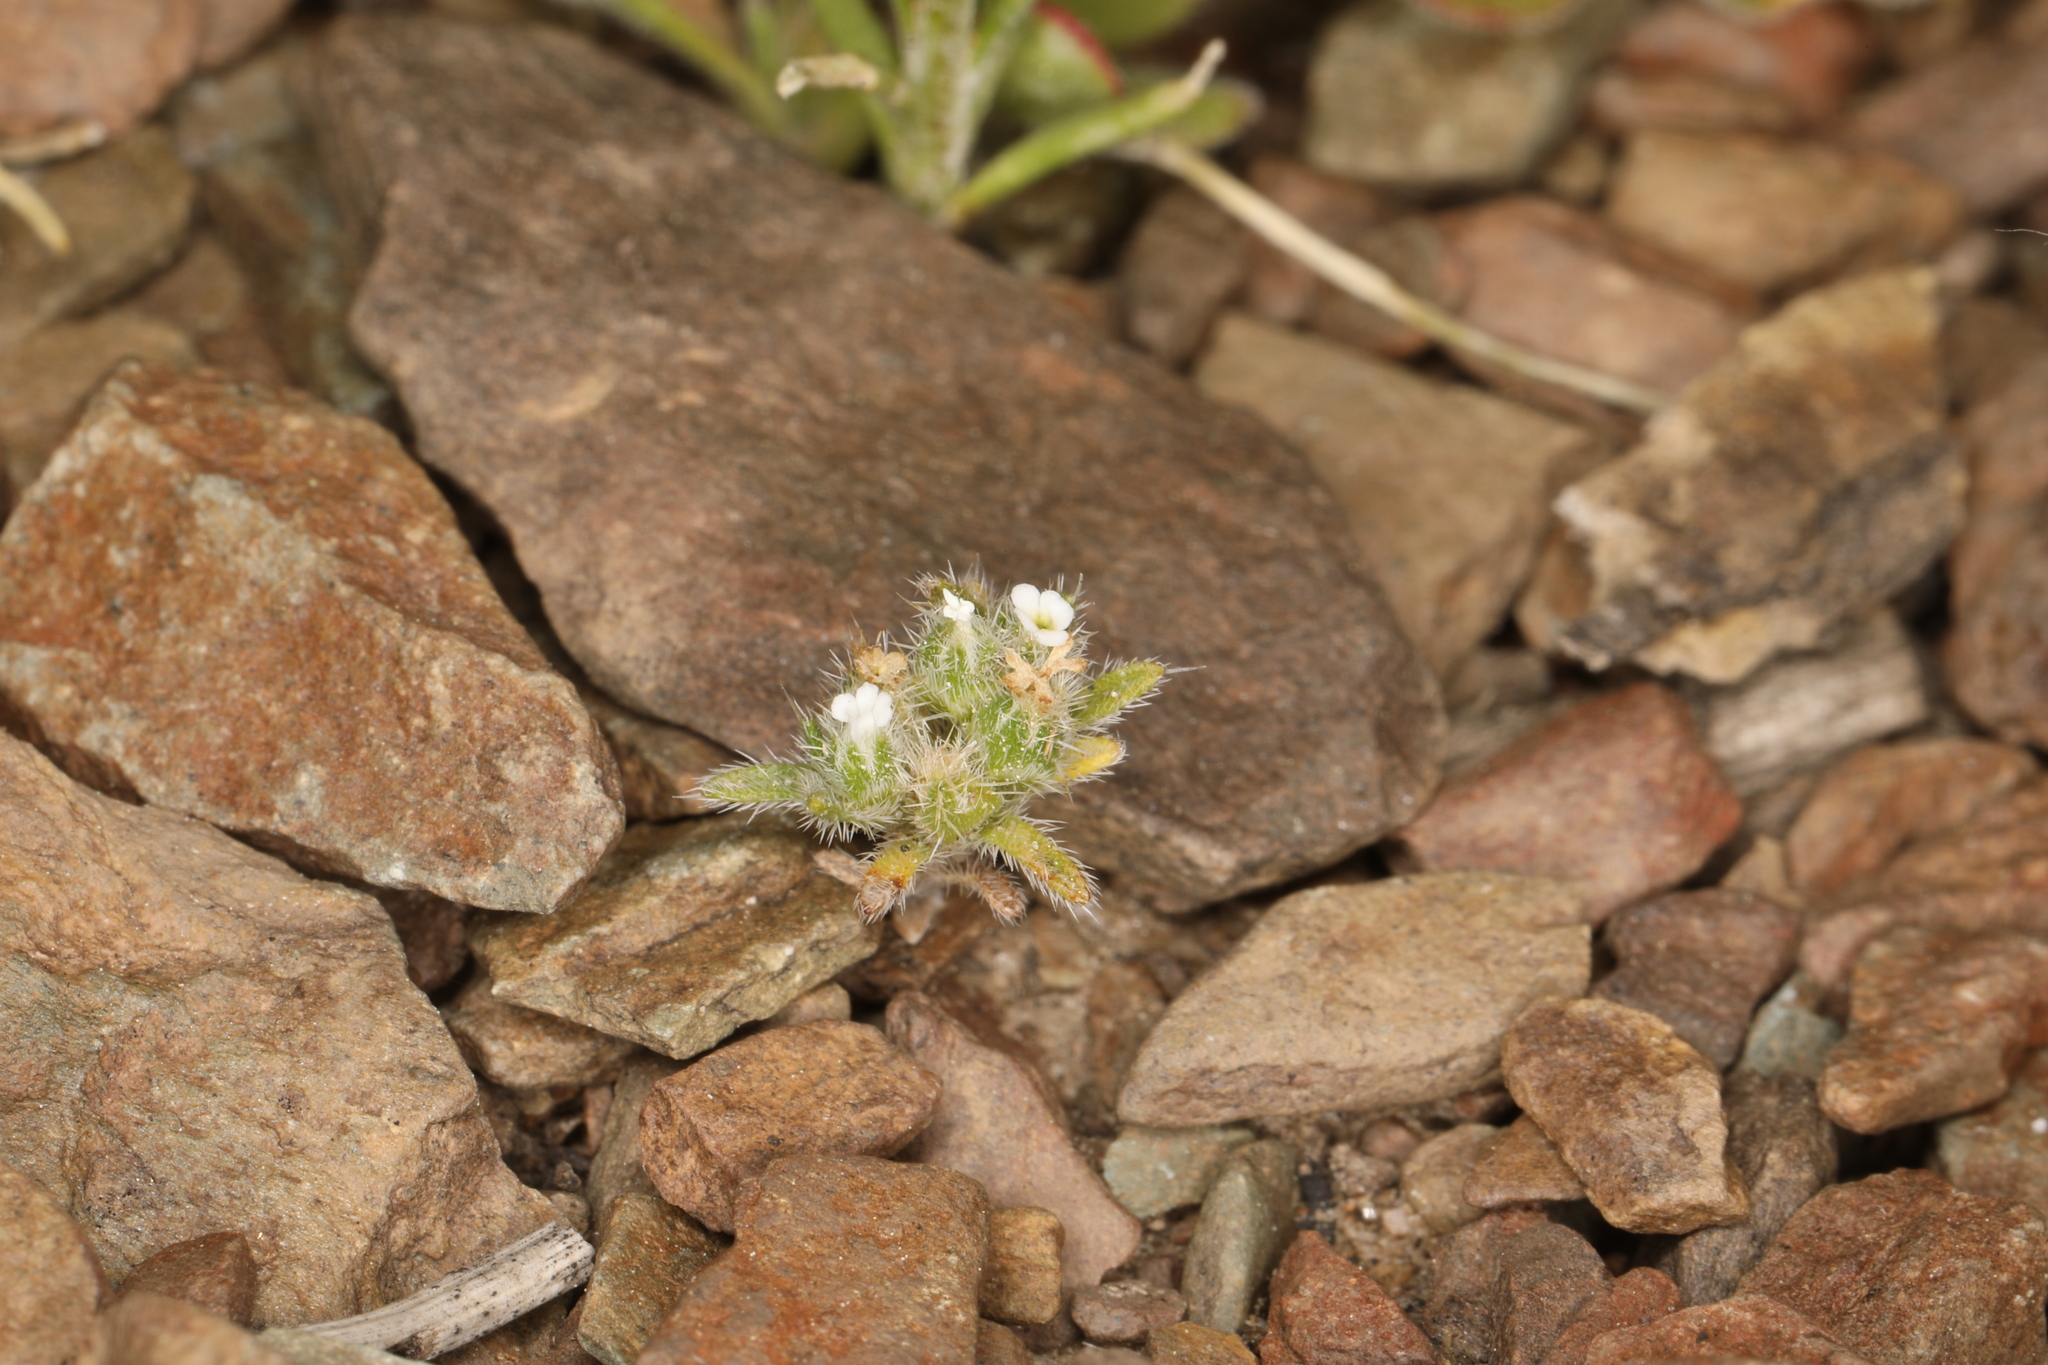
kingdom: Plantae
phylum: Tracheophyta
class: Magnoliopsida
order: Boraginales
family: Boraginaceae
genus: Greeneocharis
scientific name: Greeneocharis circumscissa
